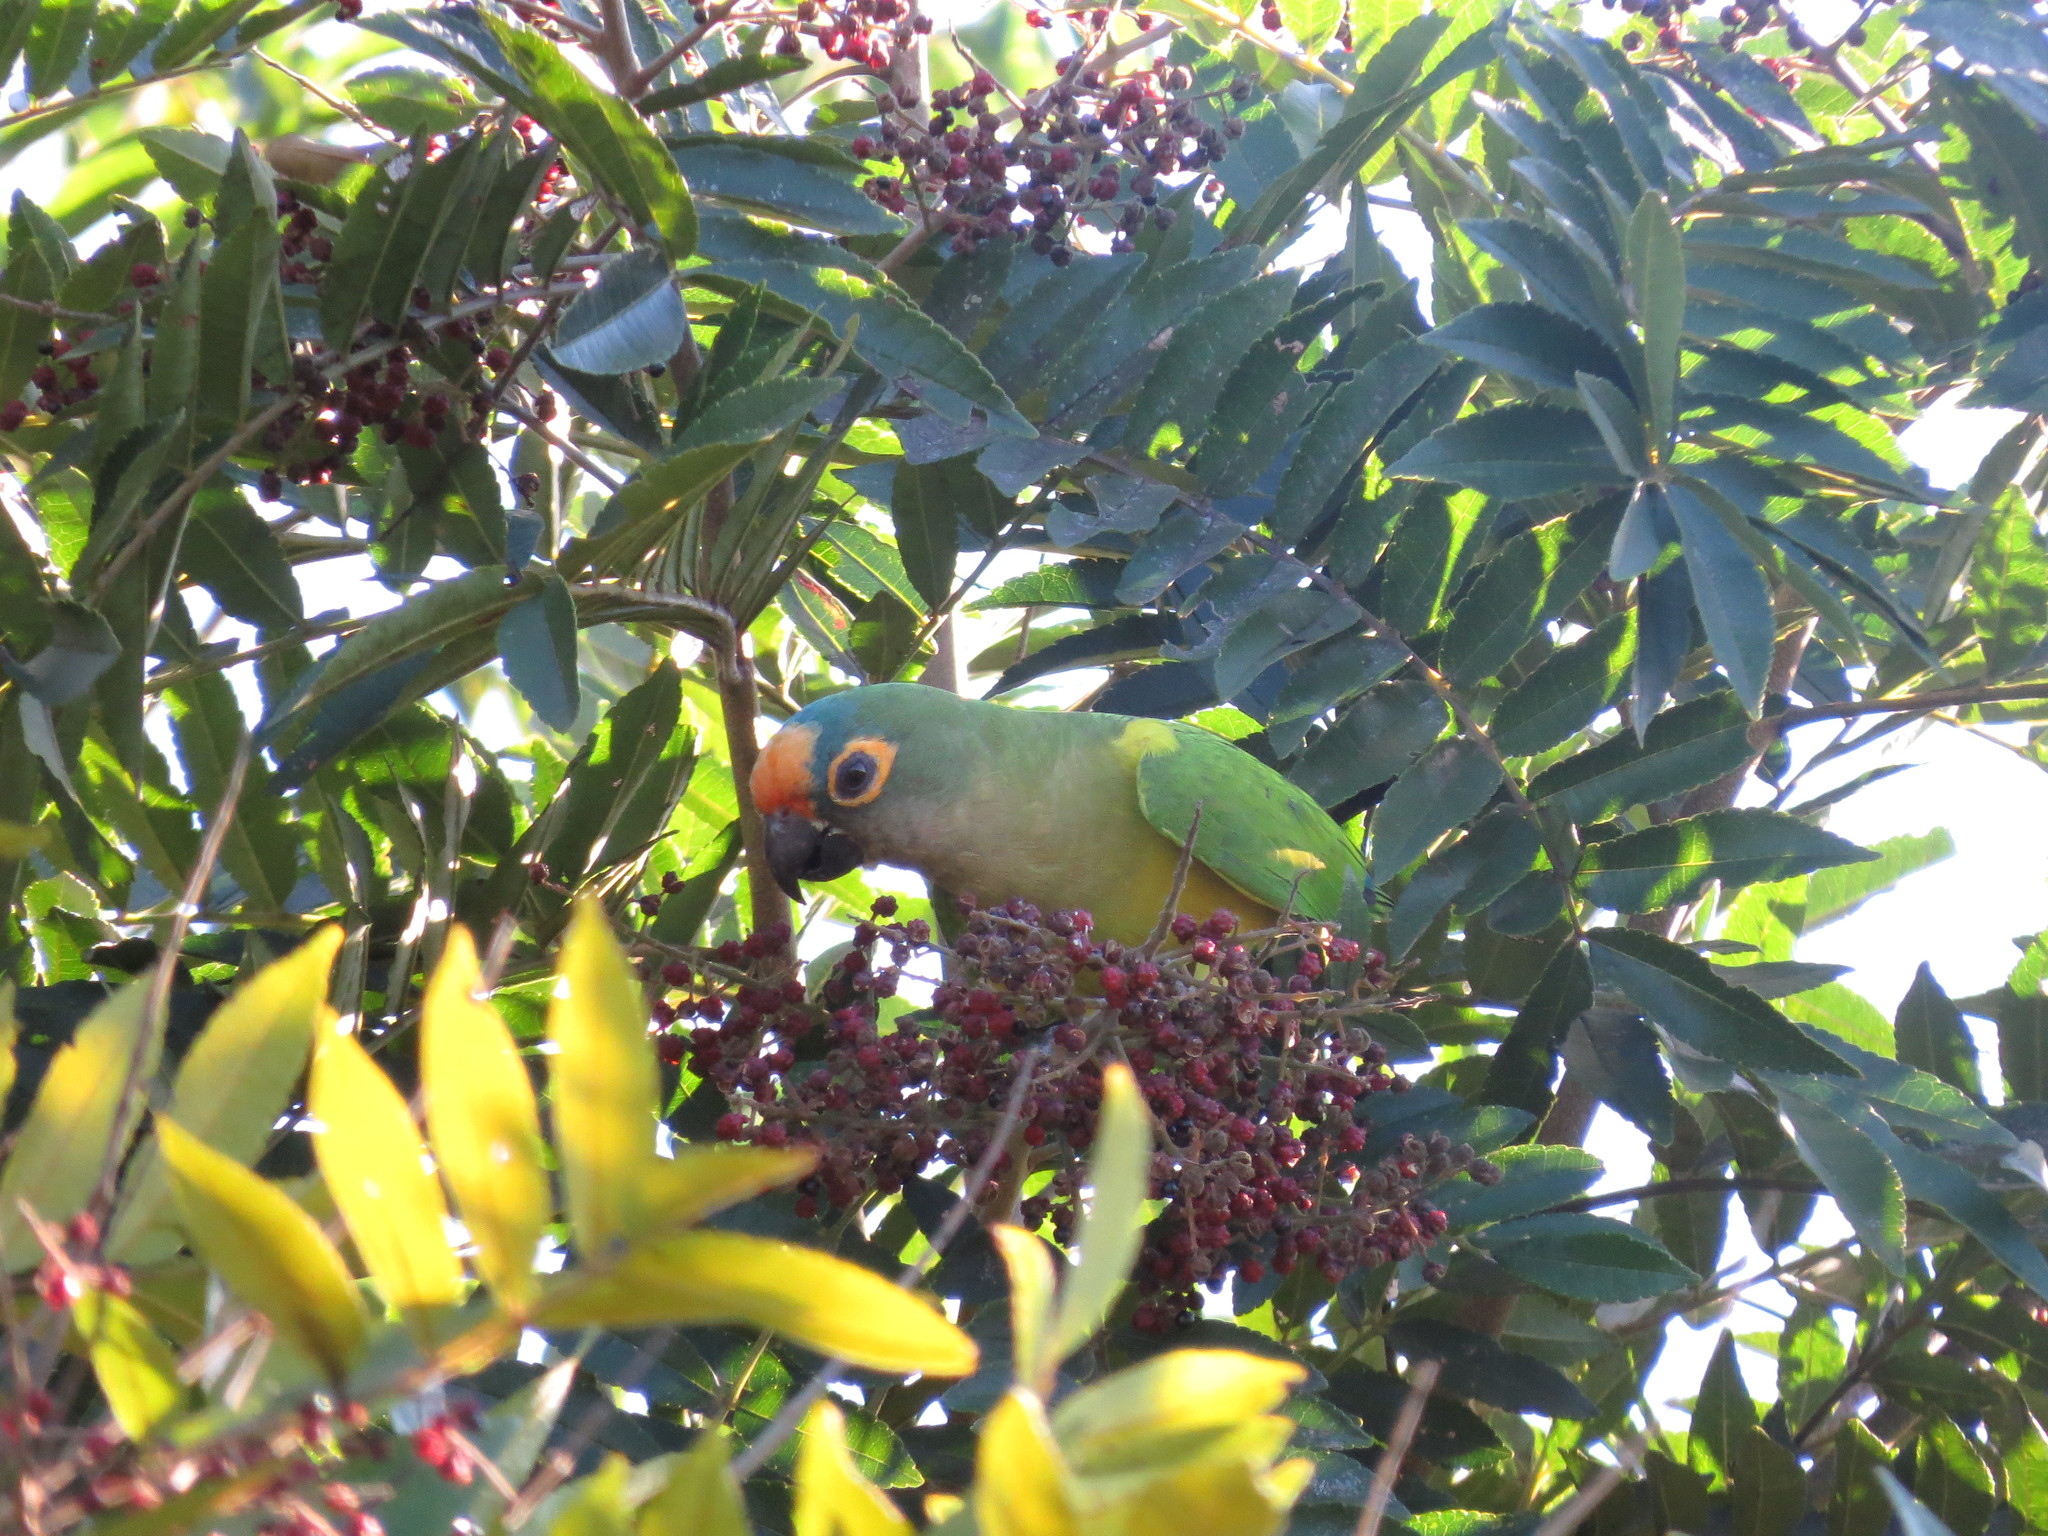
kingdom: Plantae
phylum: Tracheophyta
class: Magnoliopsida
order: Sapindales
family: Rutaceae
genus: Zanthoxylum
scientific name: Zanthoxylum rhoifolium
